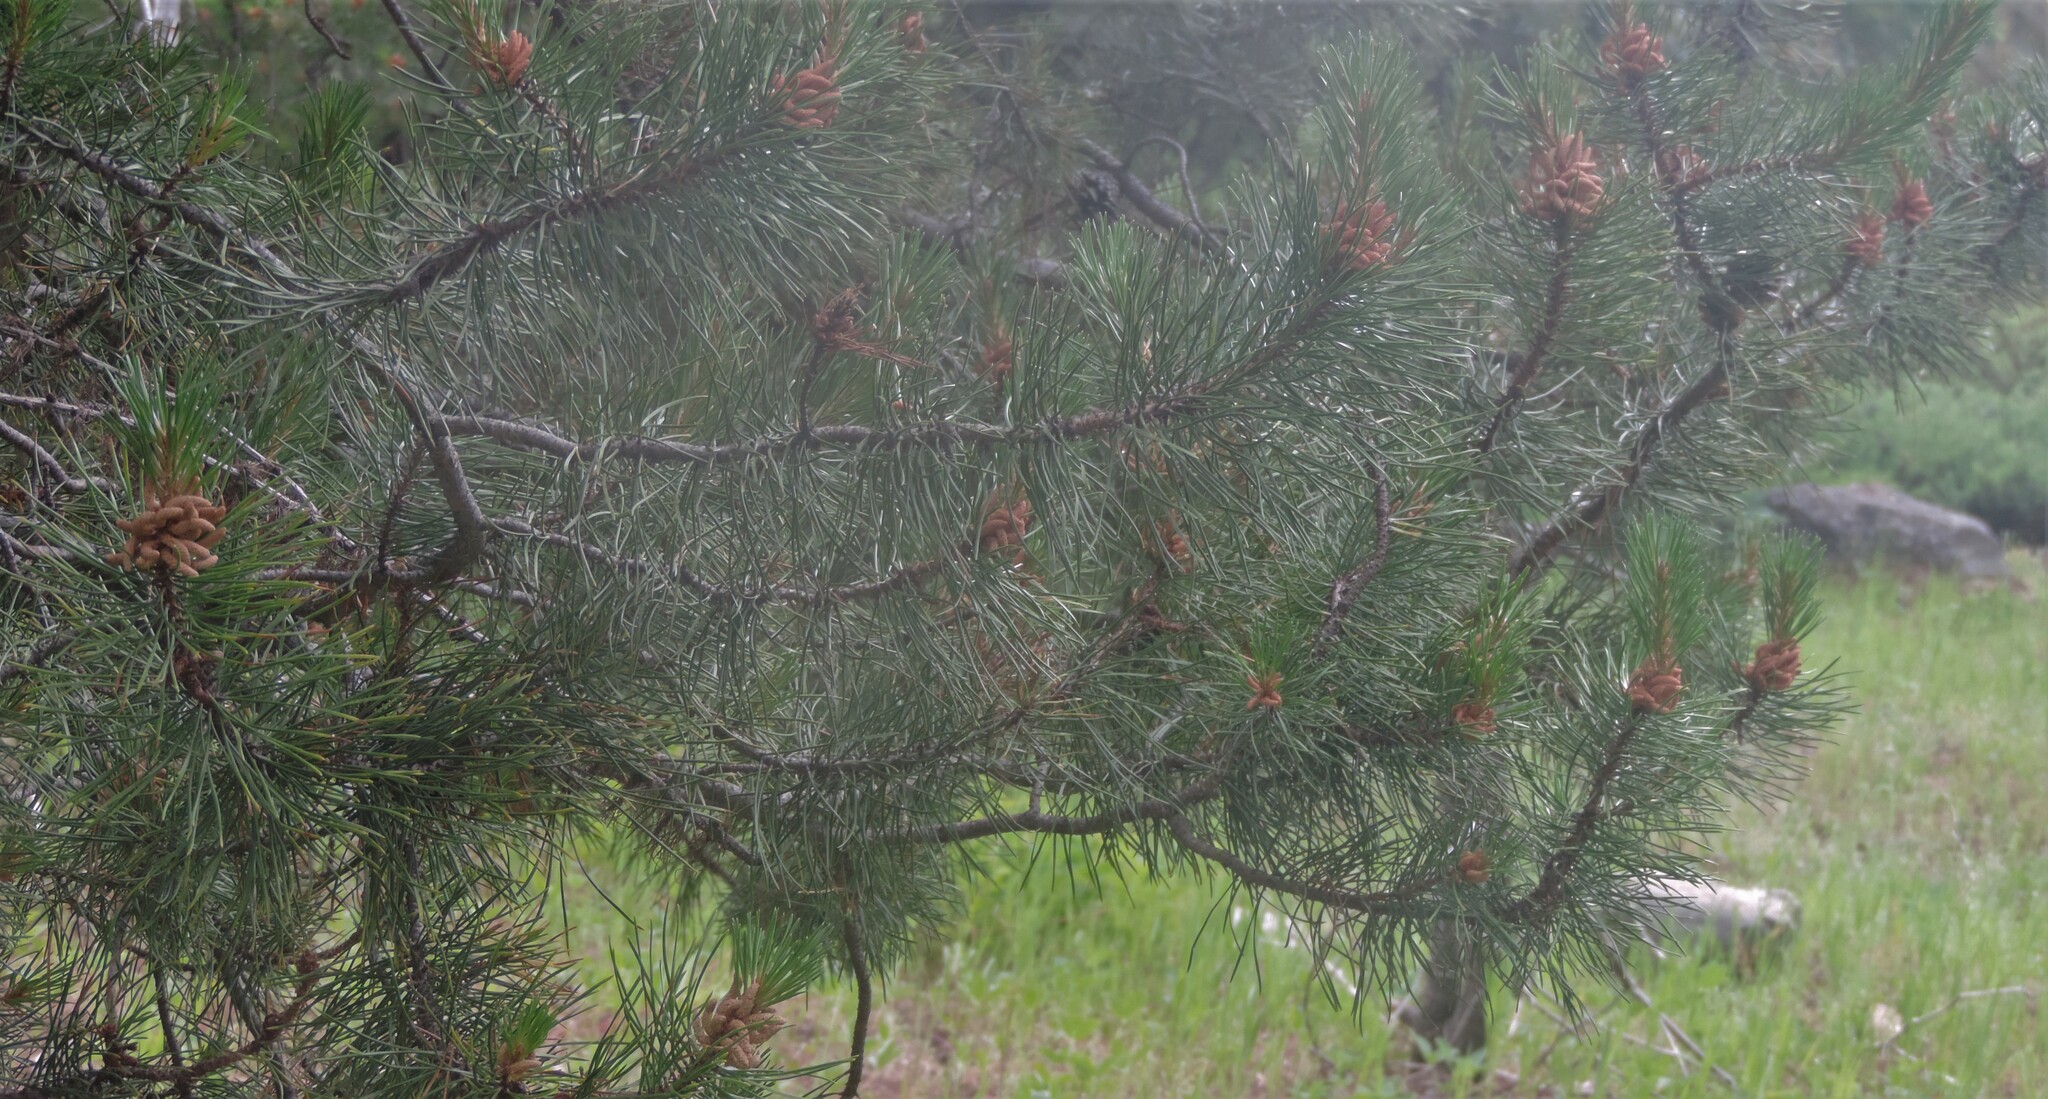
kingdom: Plantae
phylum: Tracheophyta
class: Pinopsida
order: Pinales
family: Pinaceae
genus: Pinus
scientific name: Pinus contorta
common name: Lodgepole pine
